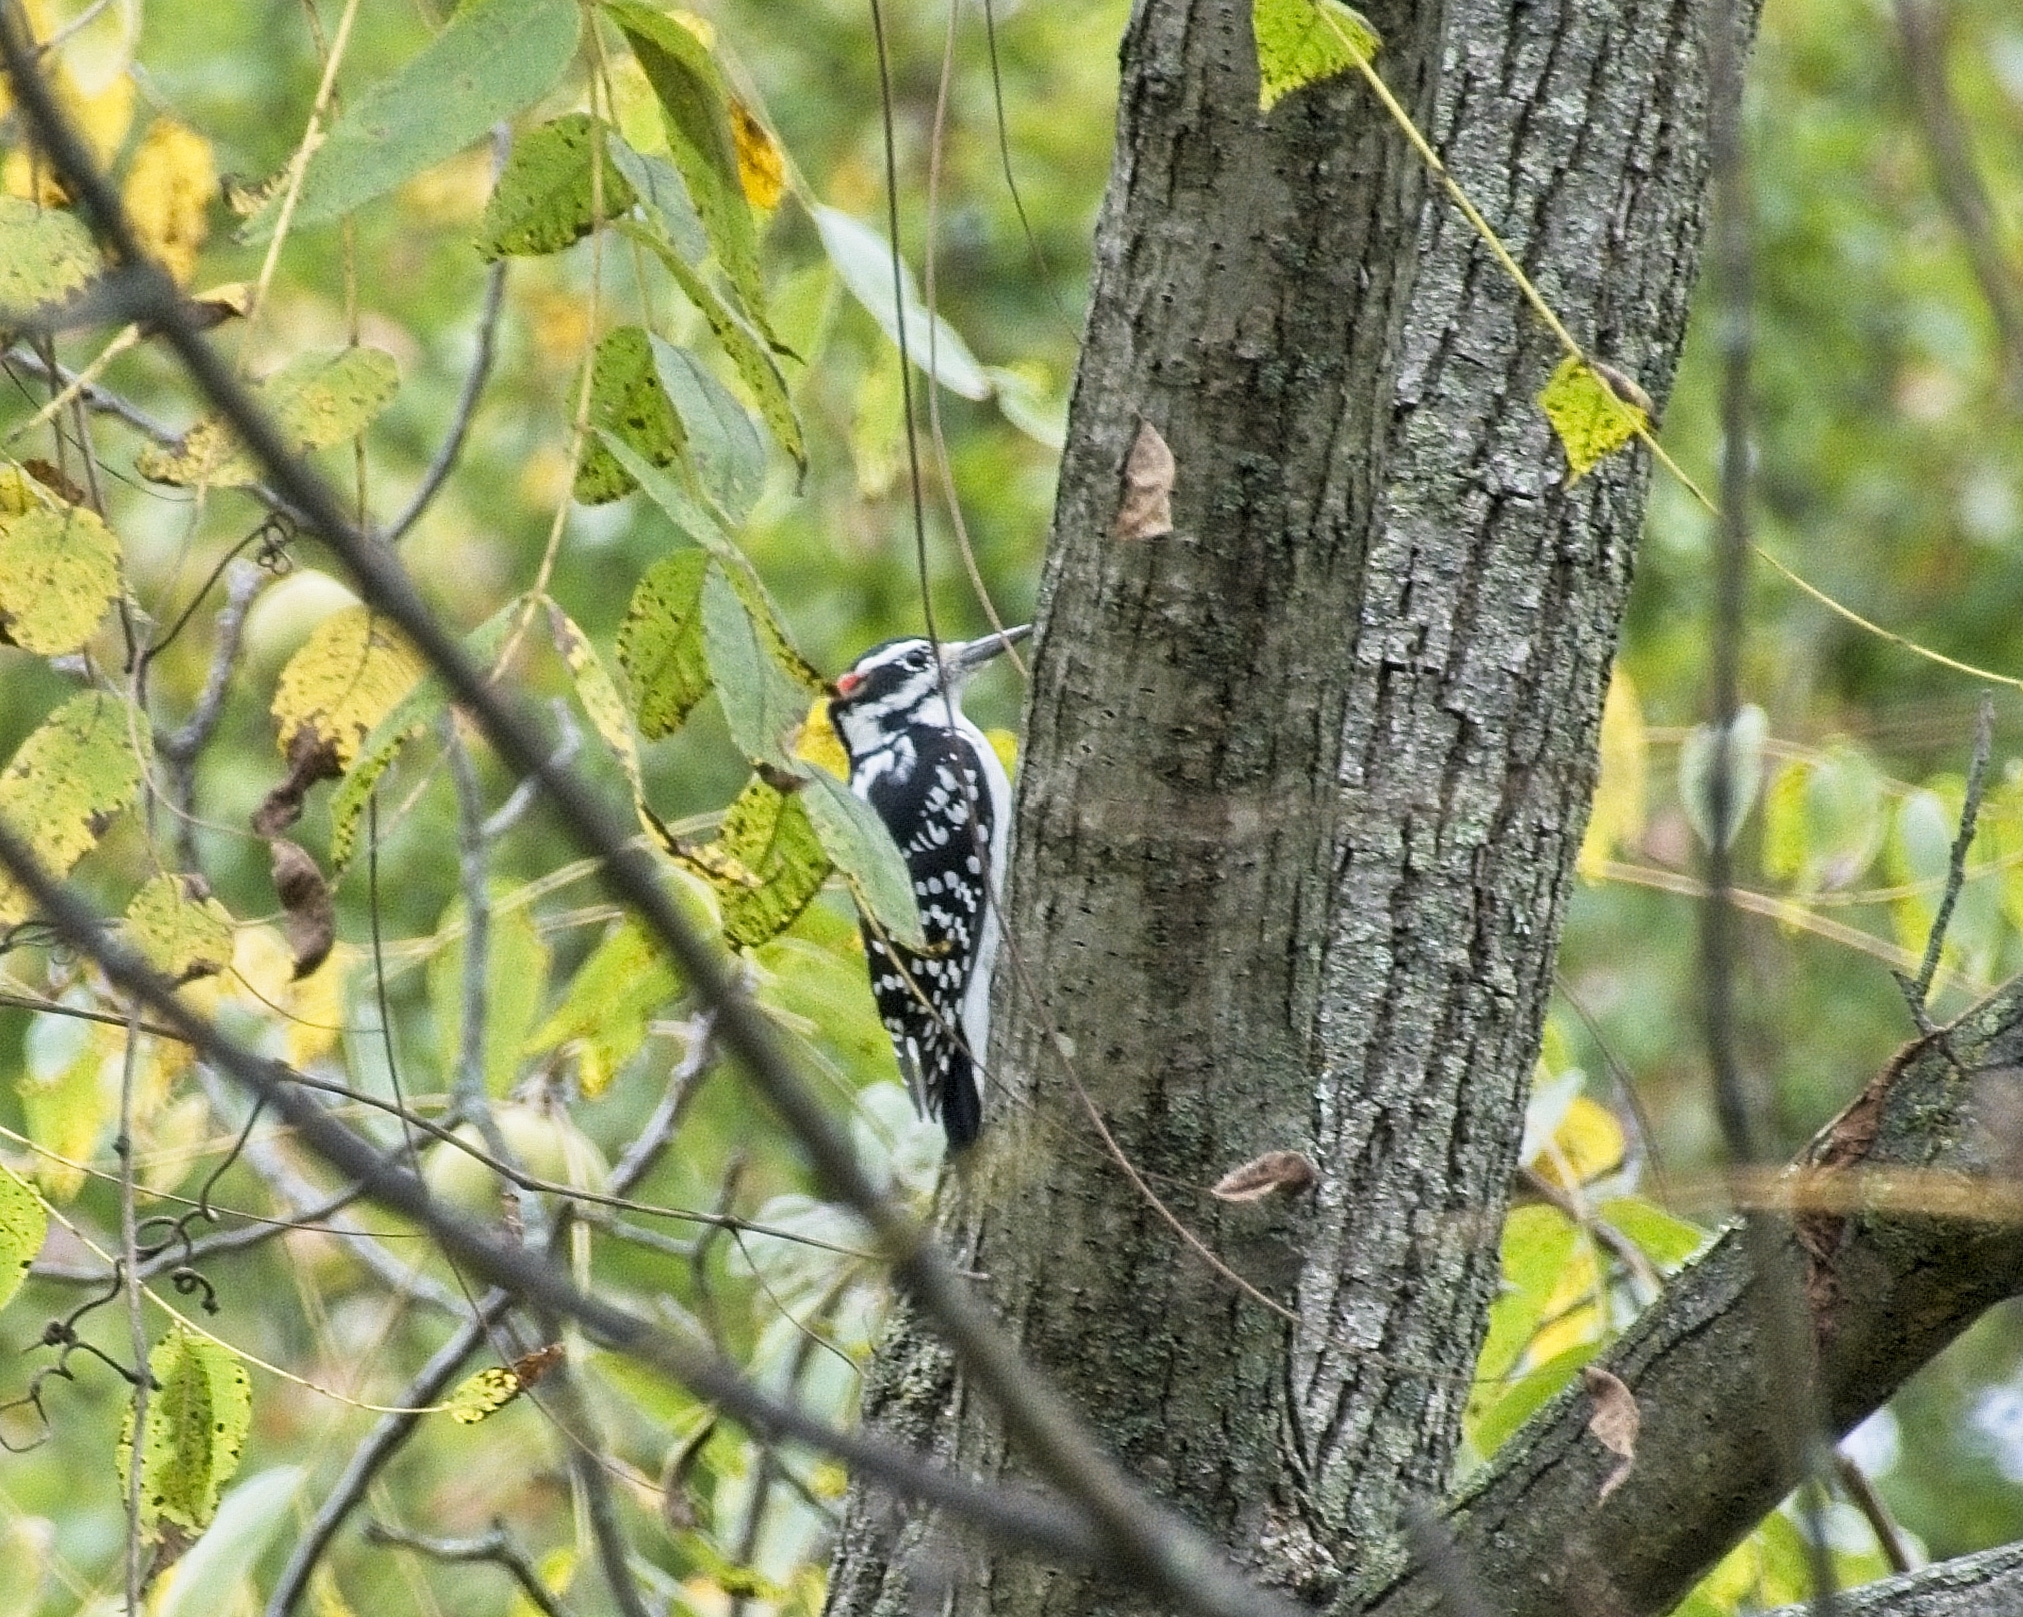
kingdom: Animalia
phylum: Chordata
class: Aves
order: Piciformes
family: Picidae
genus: Leuconotopicus
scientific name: Leuconotopicus villosus
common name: Hairy woodpecker
